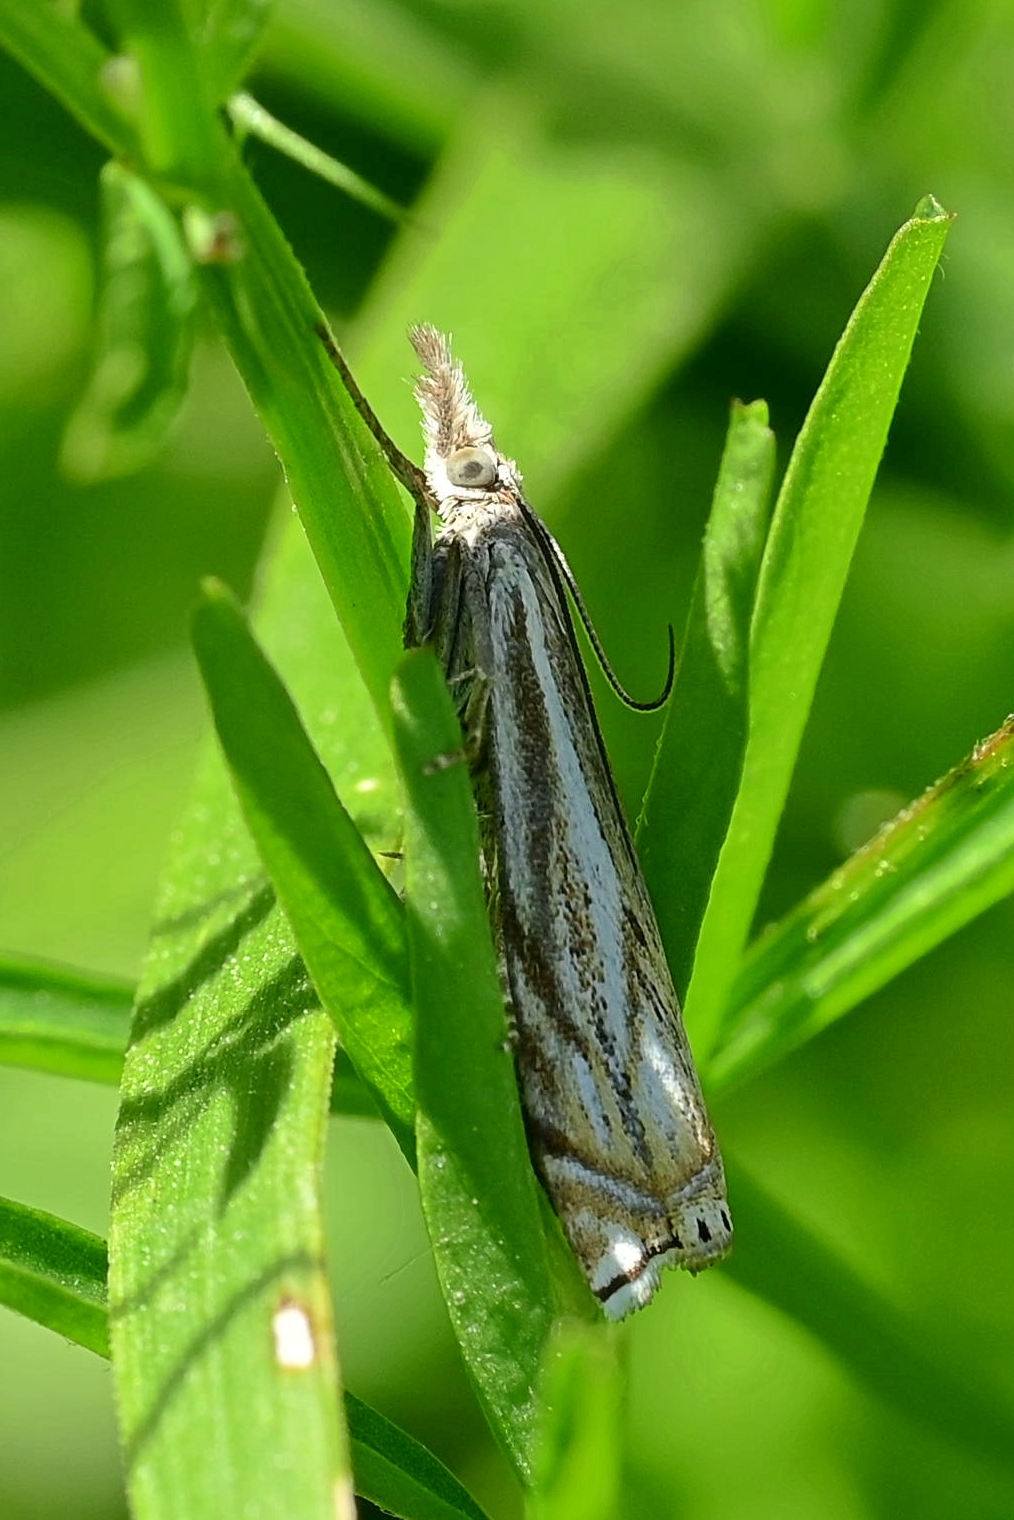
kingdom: Animalia
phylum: Arthropoda
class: Insecta
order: Lepidoptera
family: Crambidae
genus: Crambus
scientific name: Crambus nemorella
